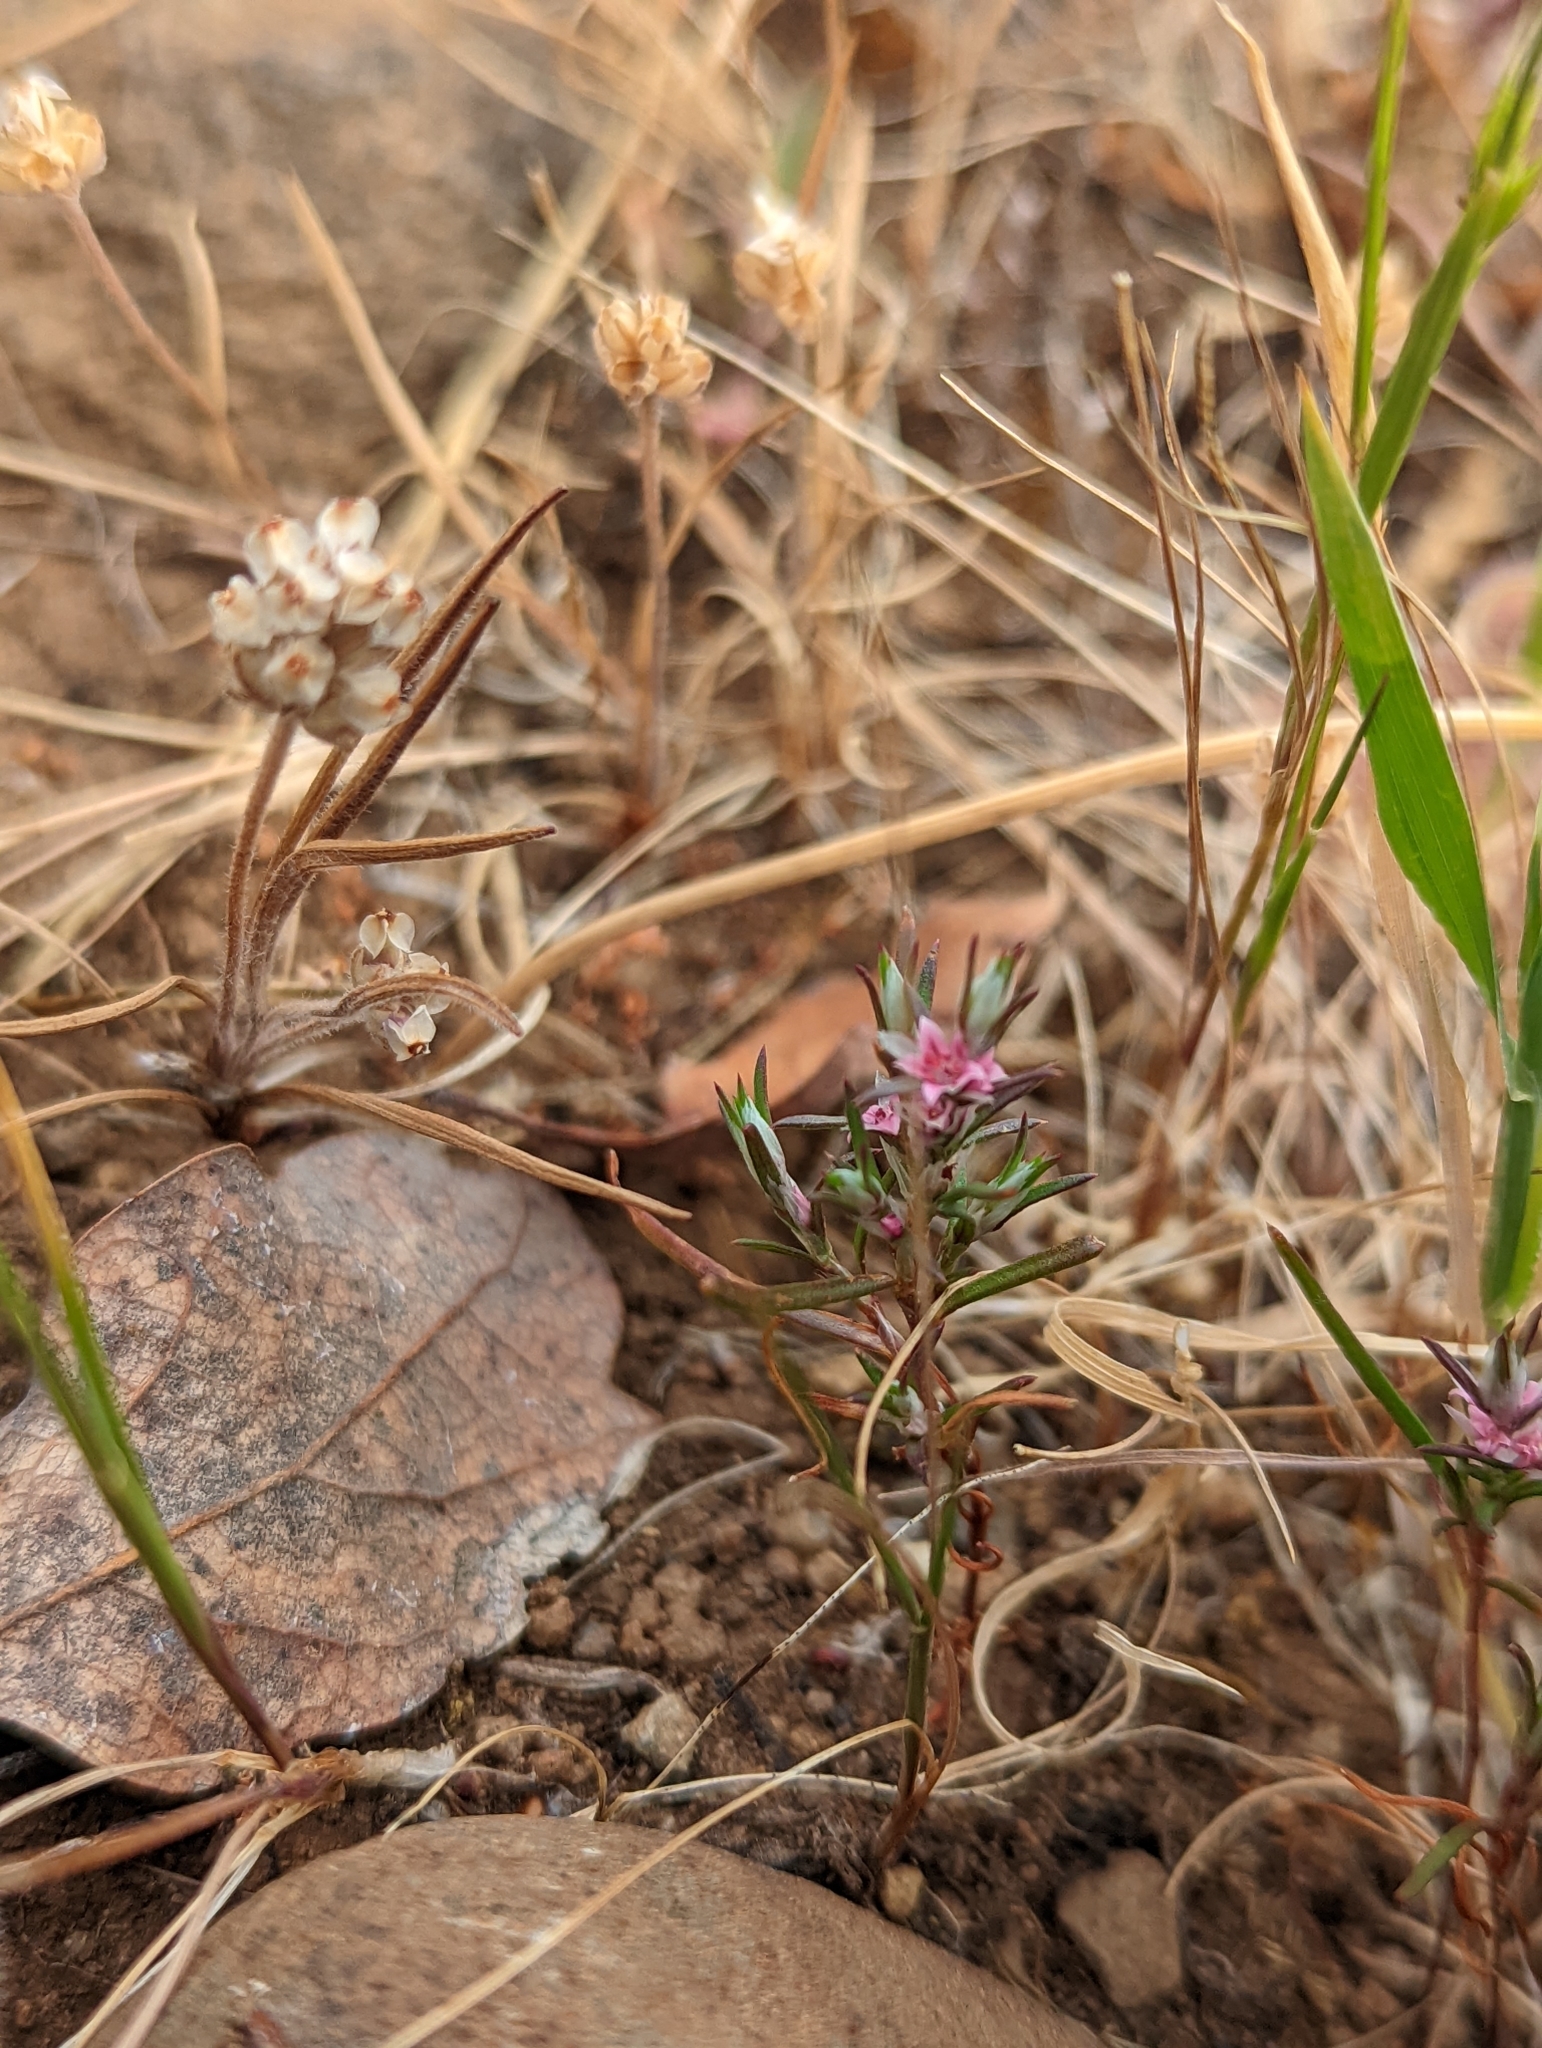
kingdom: Plantae
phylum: Tracheophyta
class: Magnoliopsida
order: Caryophyllales
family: Polygonaceae
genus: Polygonum
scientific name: Polygonum bidwelliae
